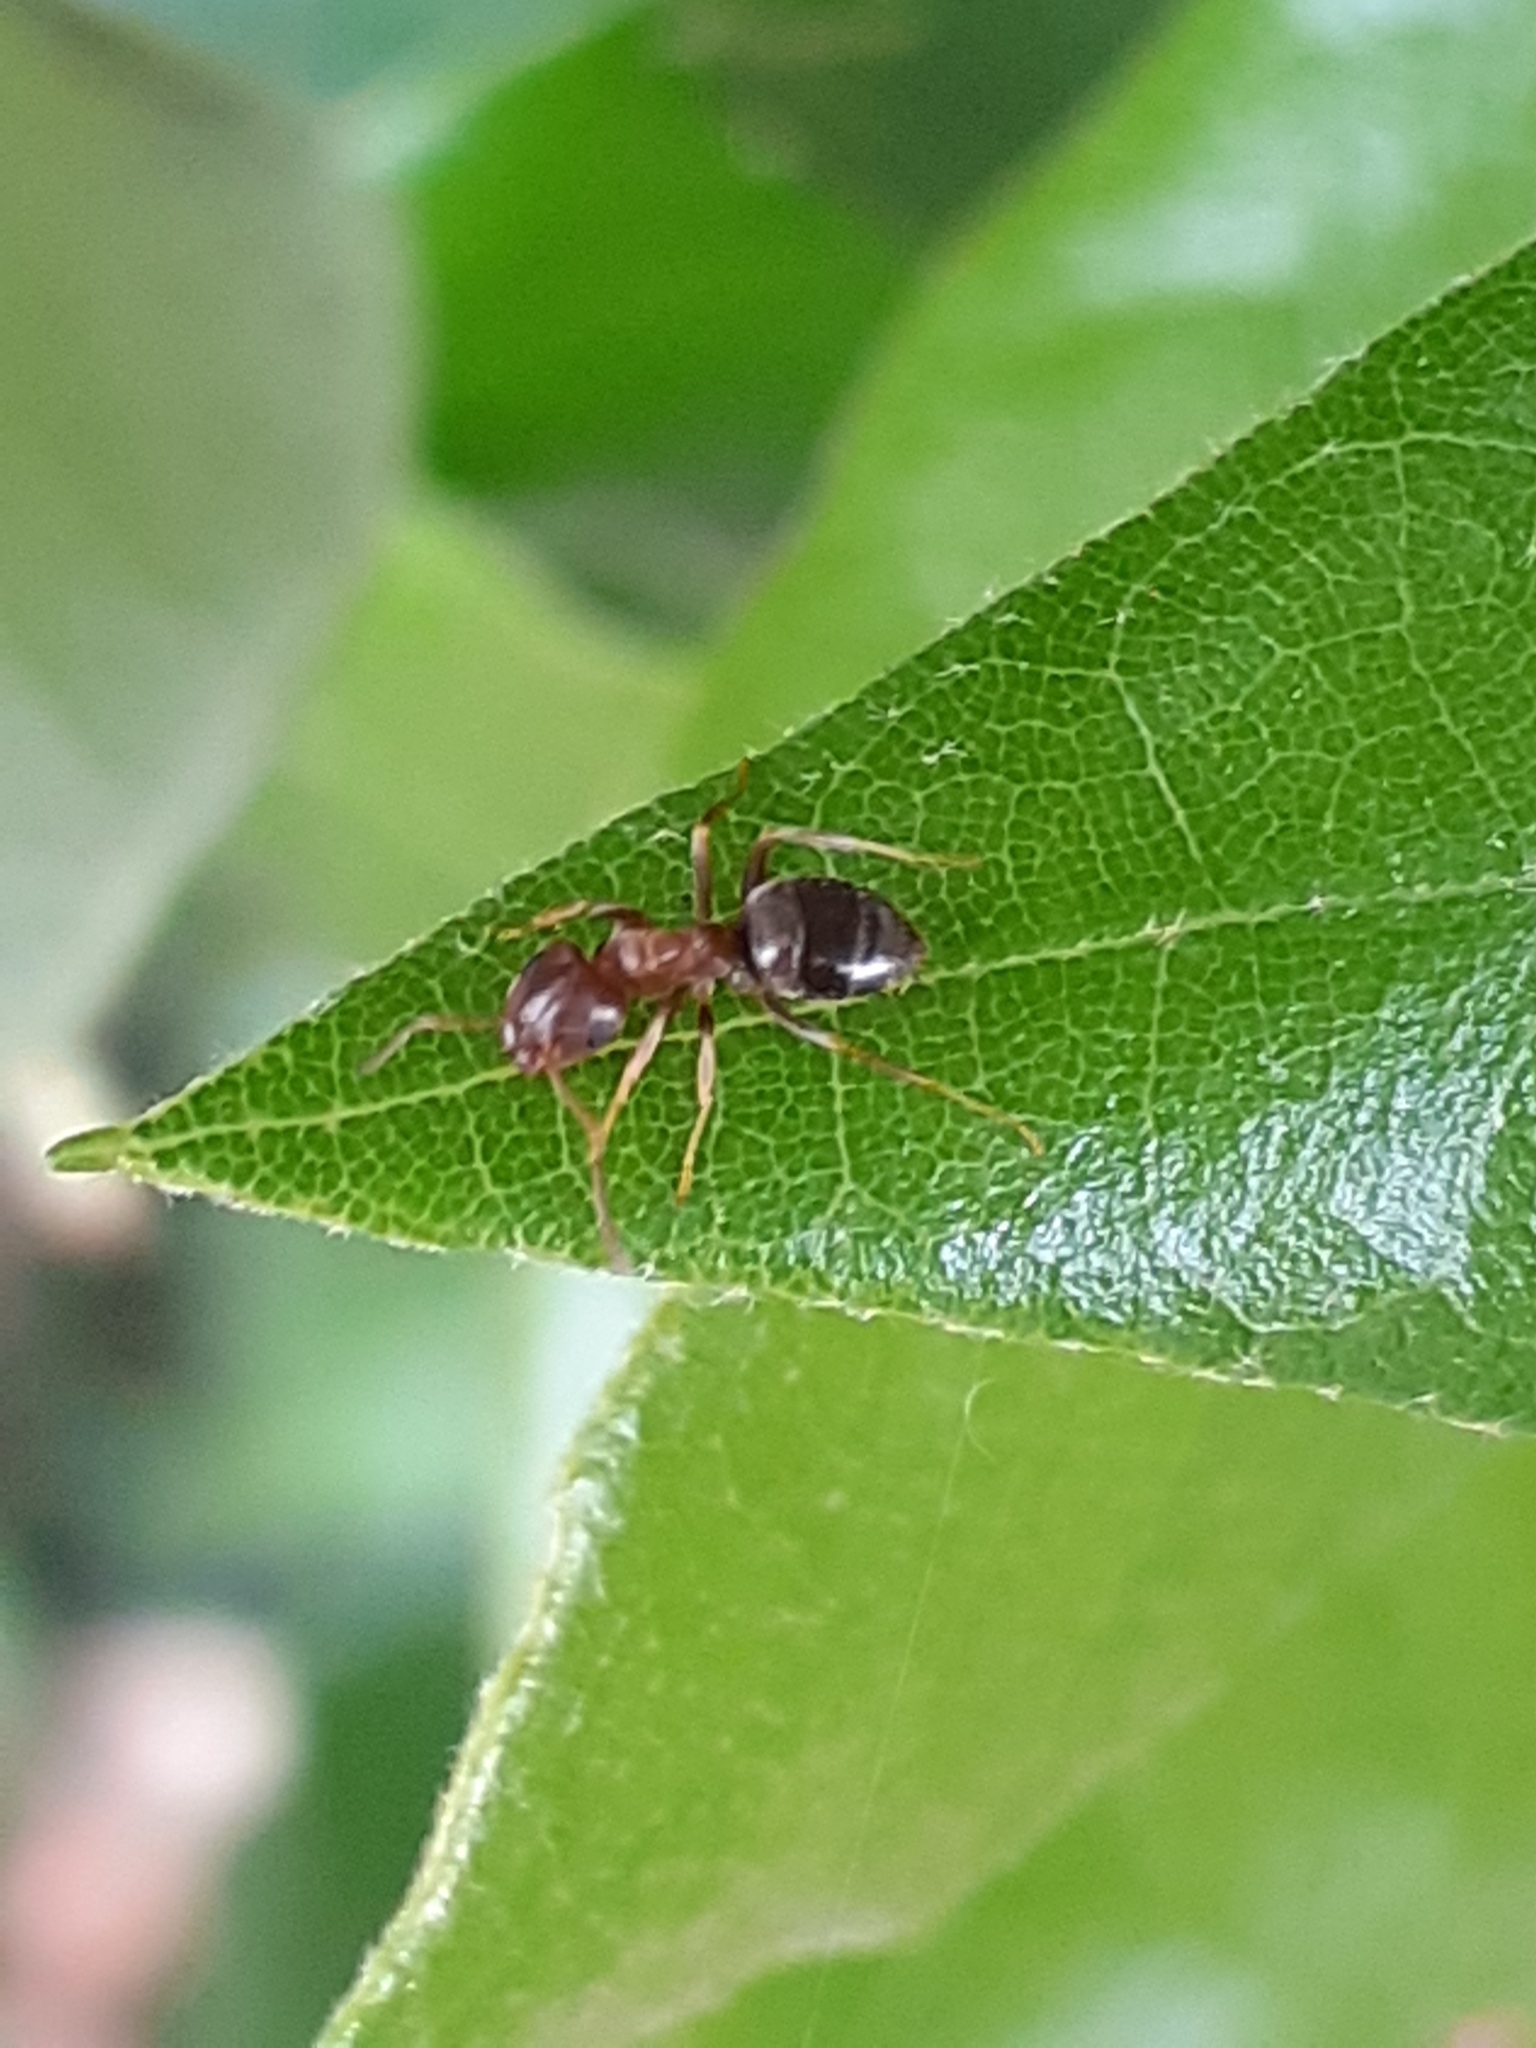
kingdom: Animalia
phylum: Arthropoda
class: Insecta
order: Hymenoptera
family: Formicidae
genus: Lasius
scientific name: Lasius brunneus
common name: Brown ant
